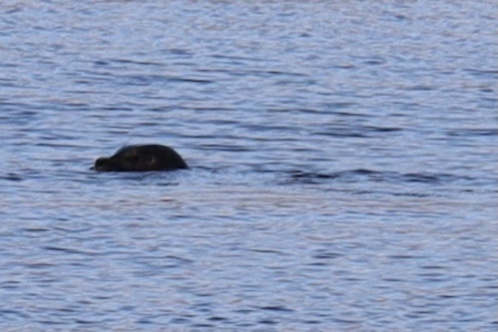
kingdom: Animalia
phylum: Chordata
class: Mammalia
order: Carnivora
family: Phocidae
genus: Phoca
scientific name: Phoca vitulina
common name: Harbor seal
